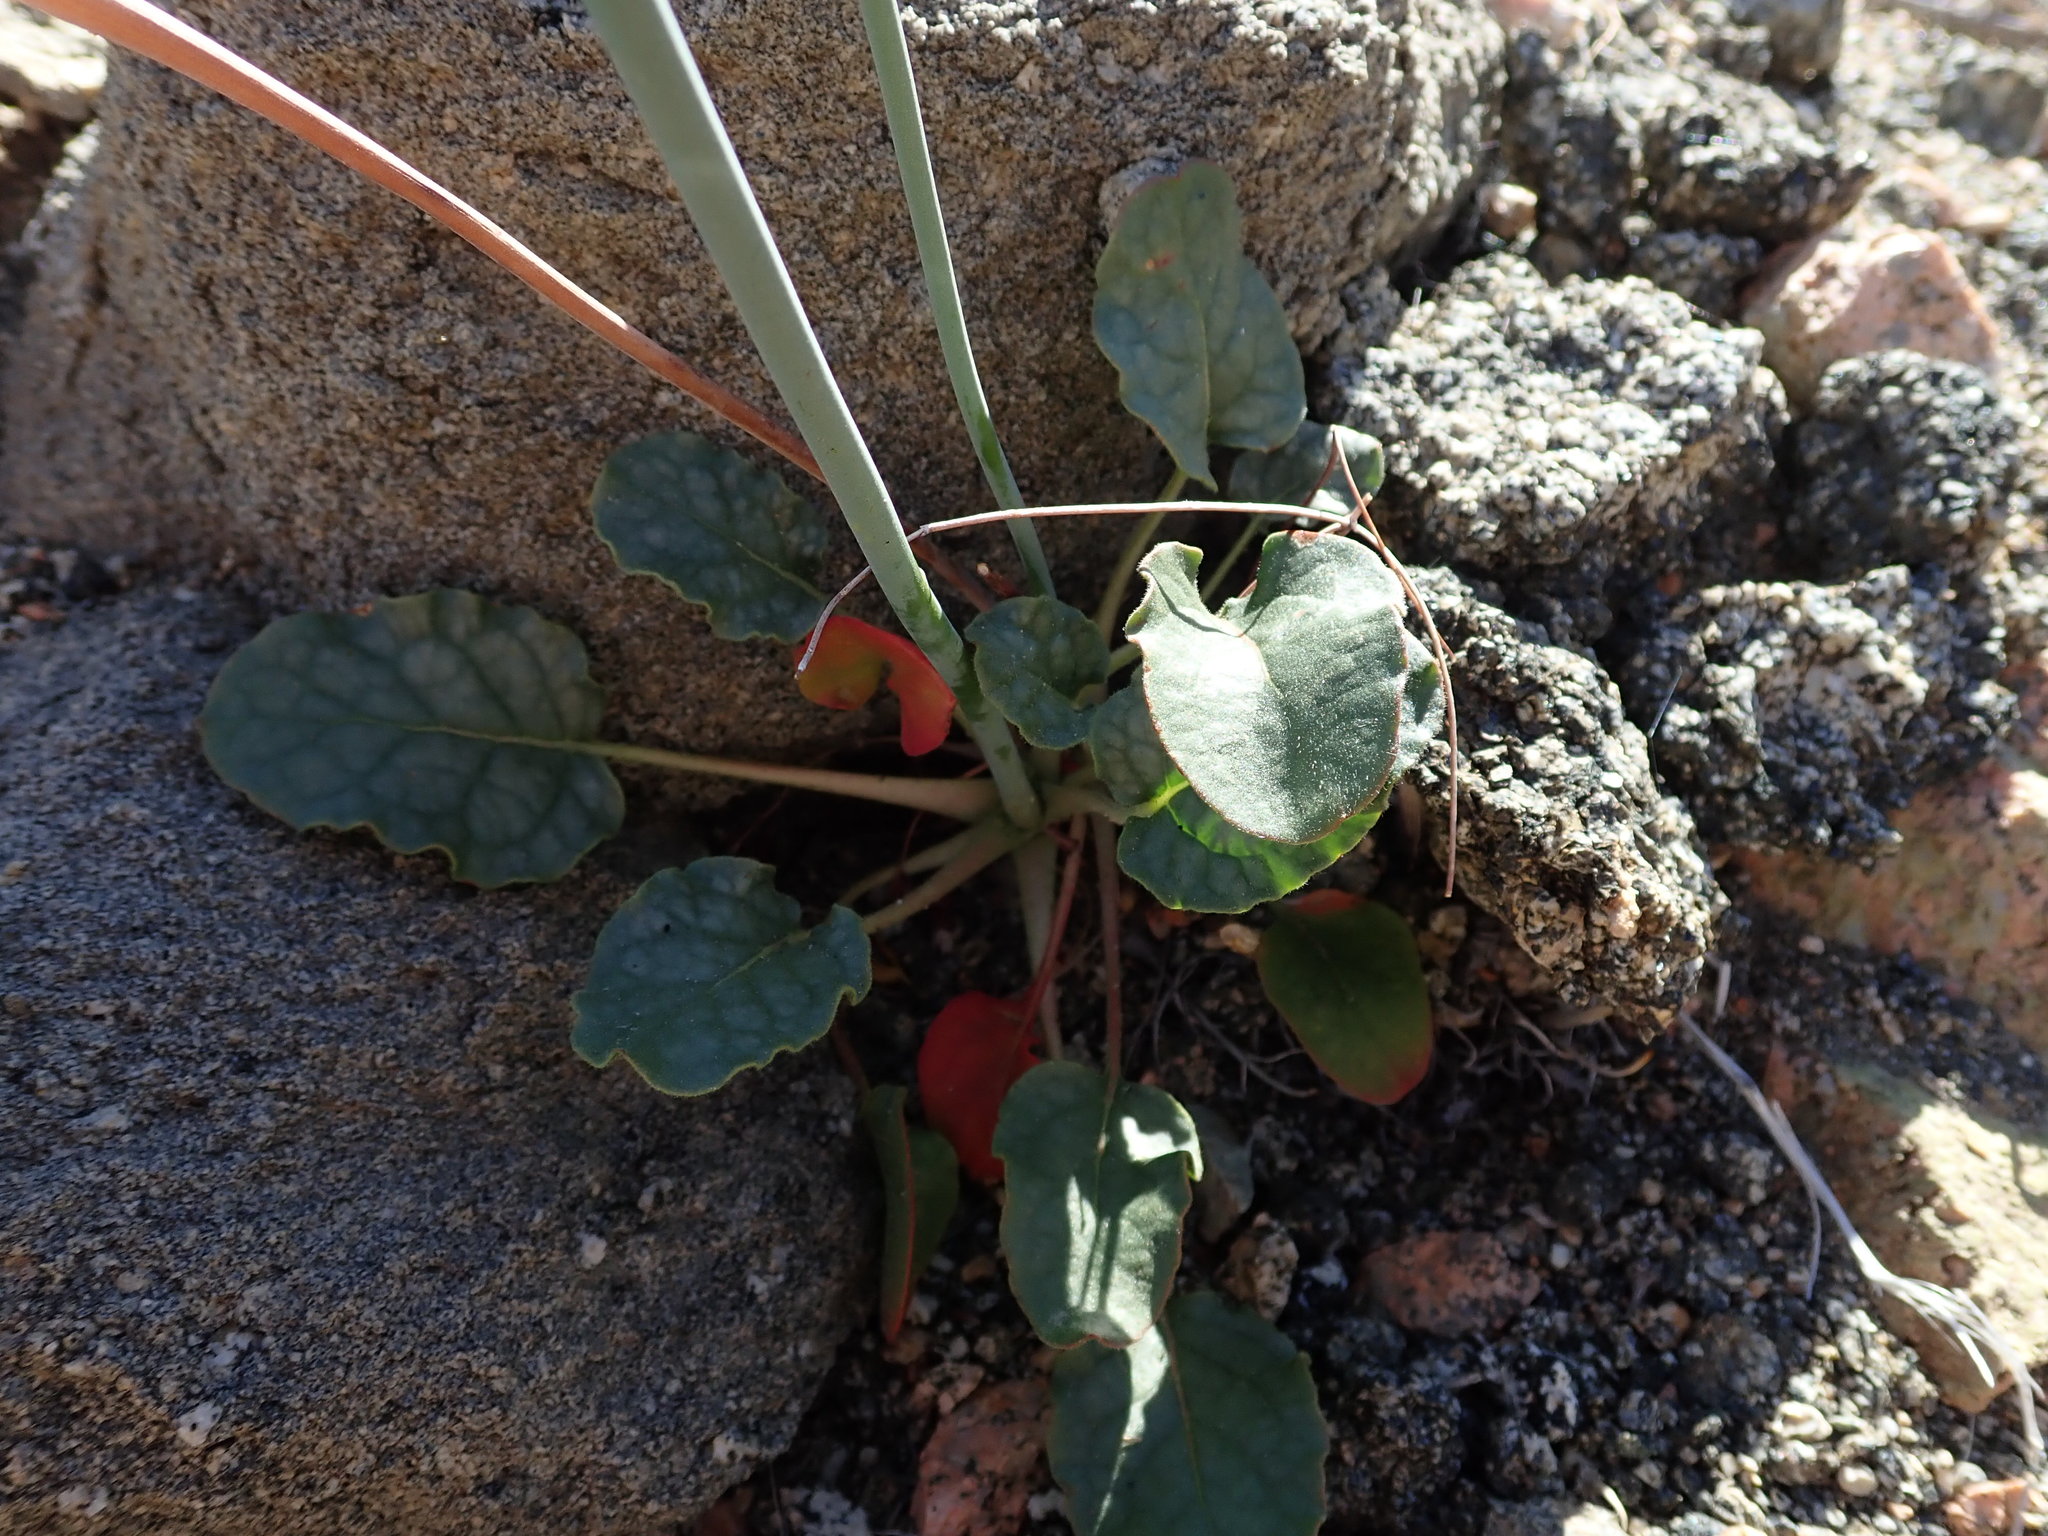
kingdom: Plantae
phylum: Tracheophyta
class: Magnoliopsida
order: Caryophyllales
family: Polygonaceae
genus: Eriogonum
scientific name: Eriogonum inflatum
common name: Desert trumpet
